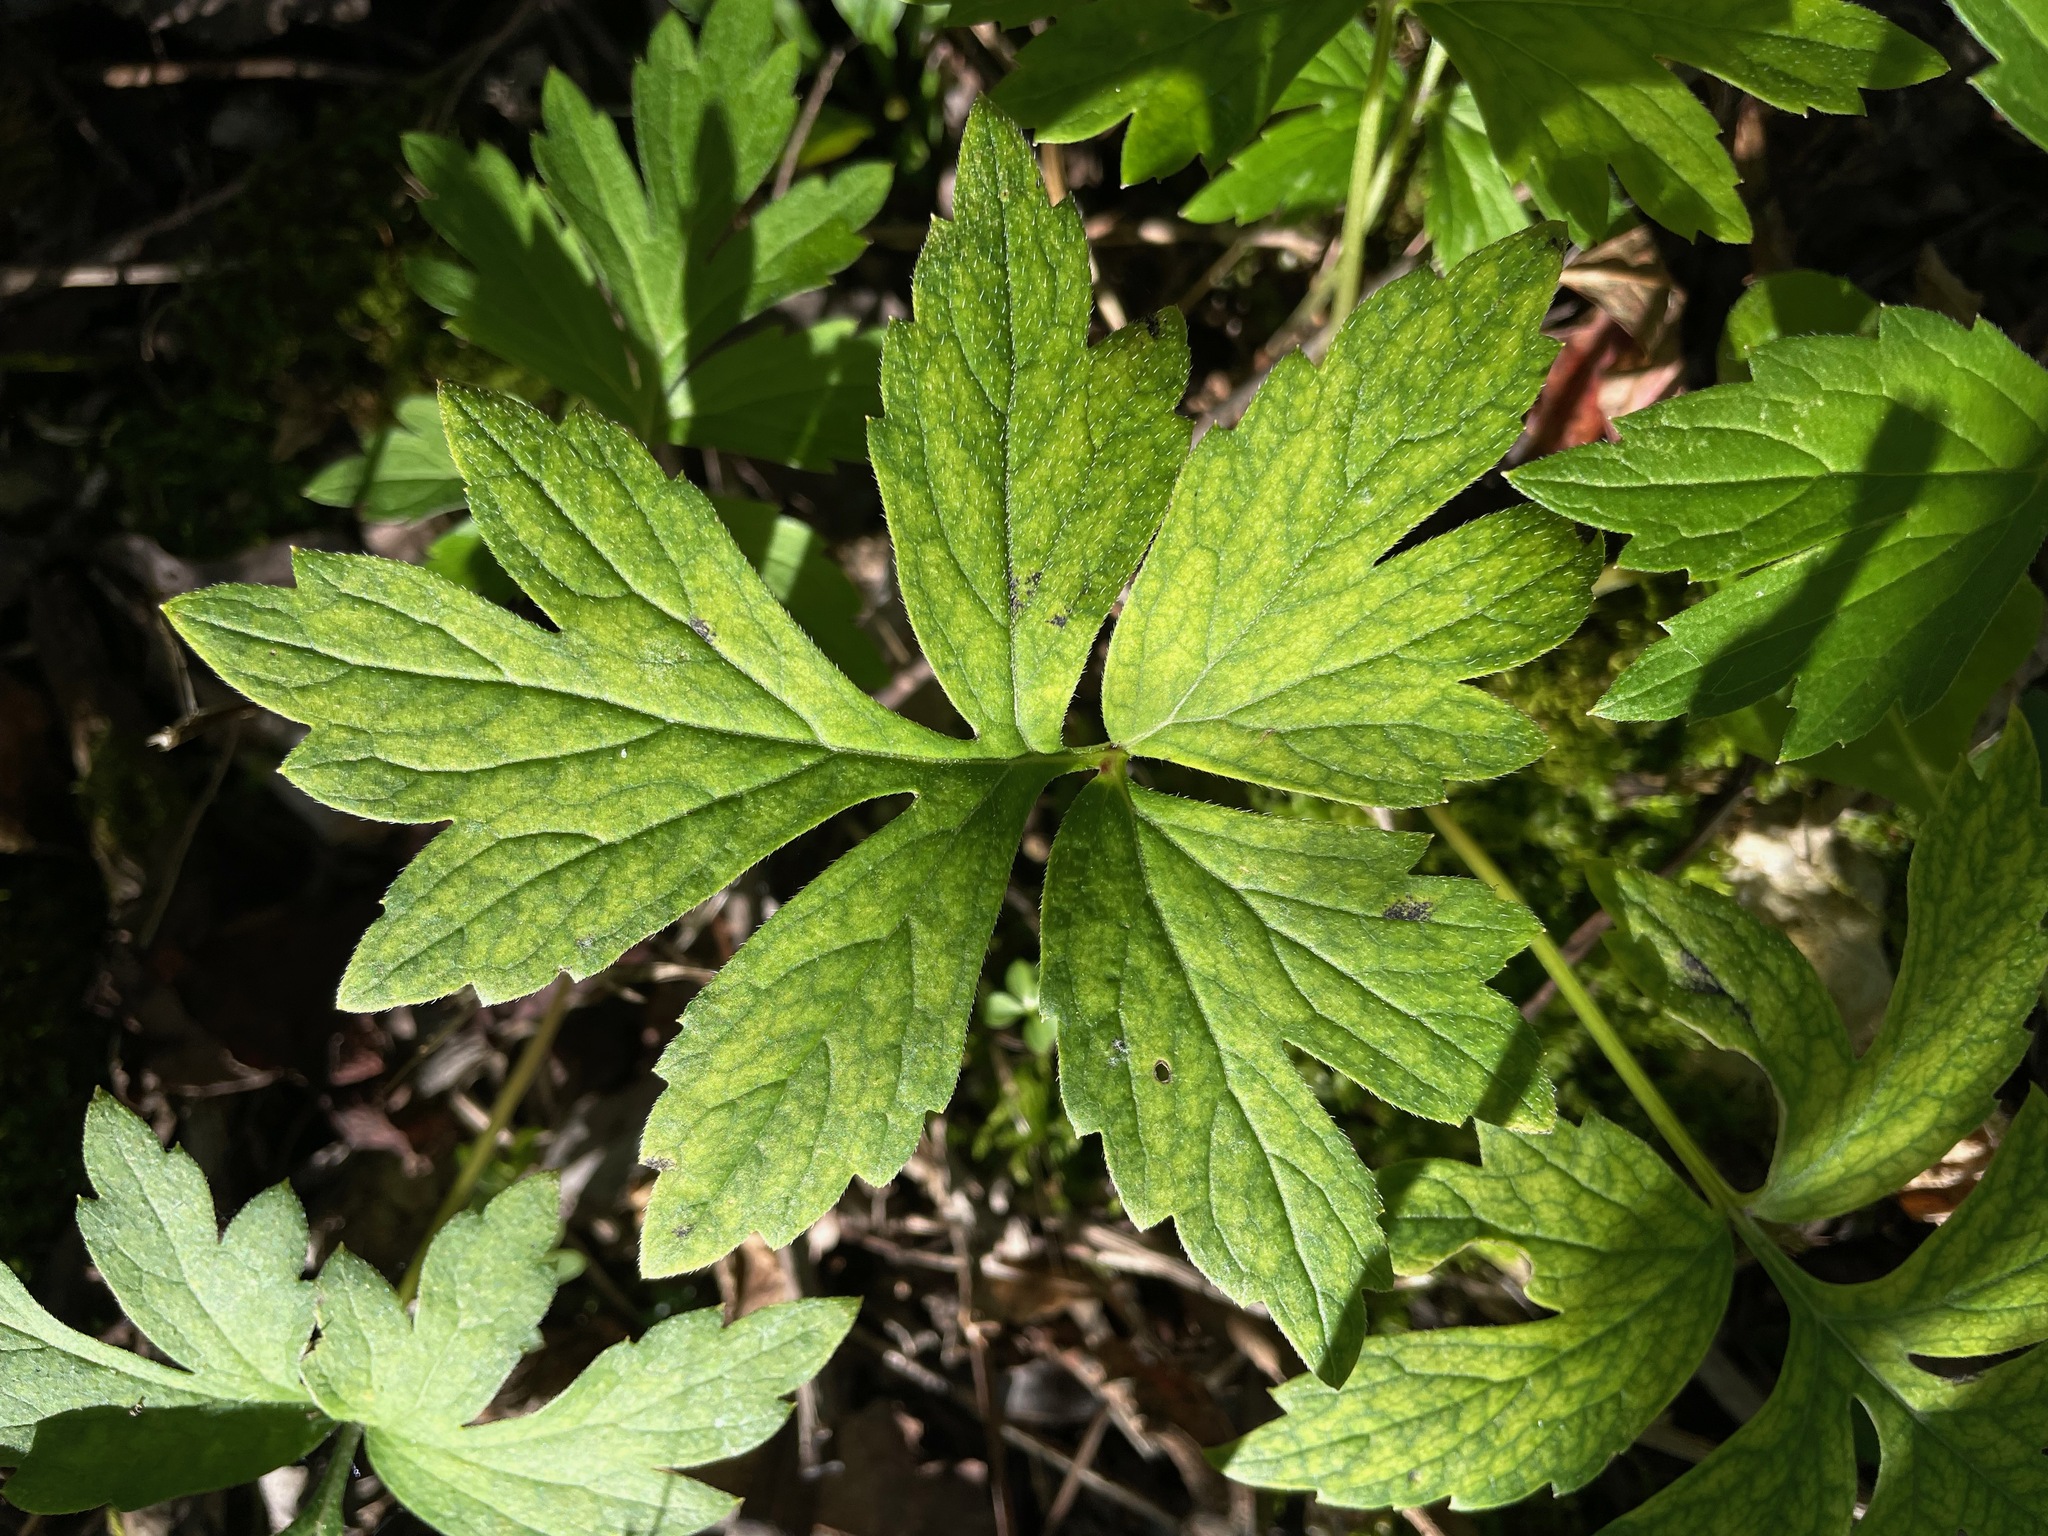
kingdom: Plantae
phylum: Tracheophyta
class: Magnoliopsida
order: Boraginales
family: Hydrophyllaceae
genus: Hydrophyllum
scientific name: Hydrophyllum virginianum
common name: Virginia waterleaf
